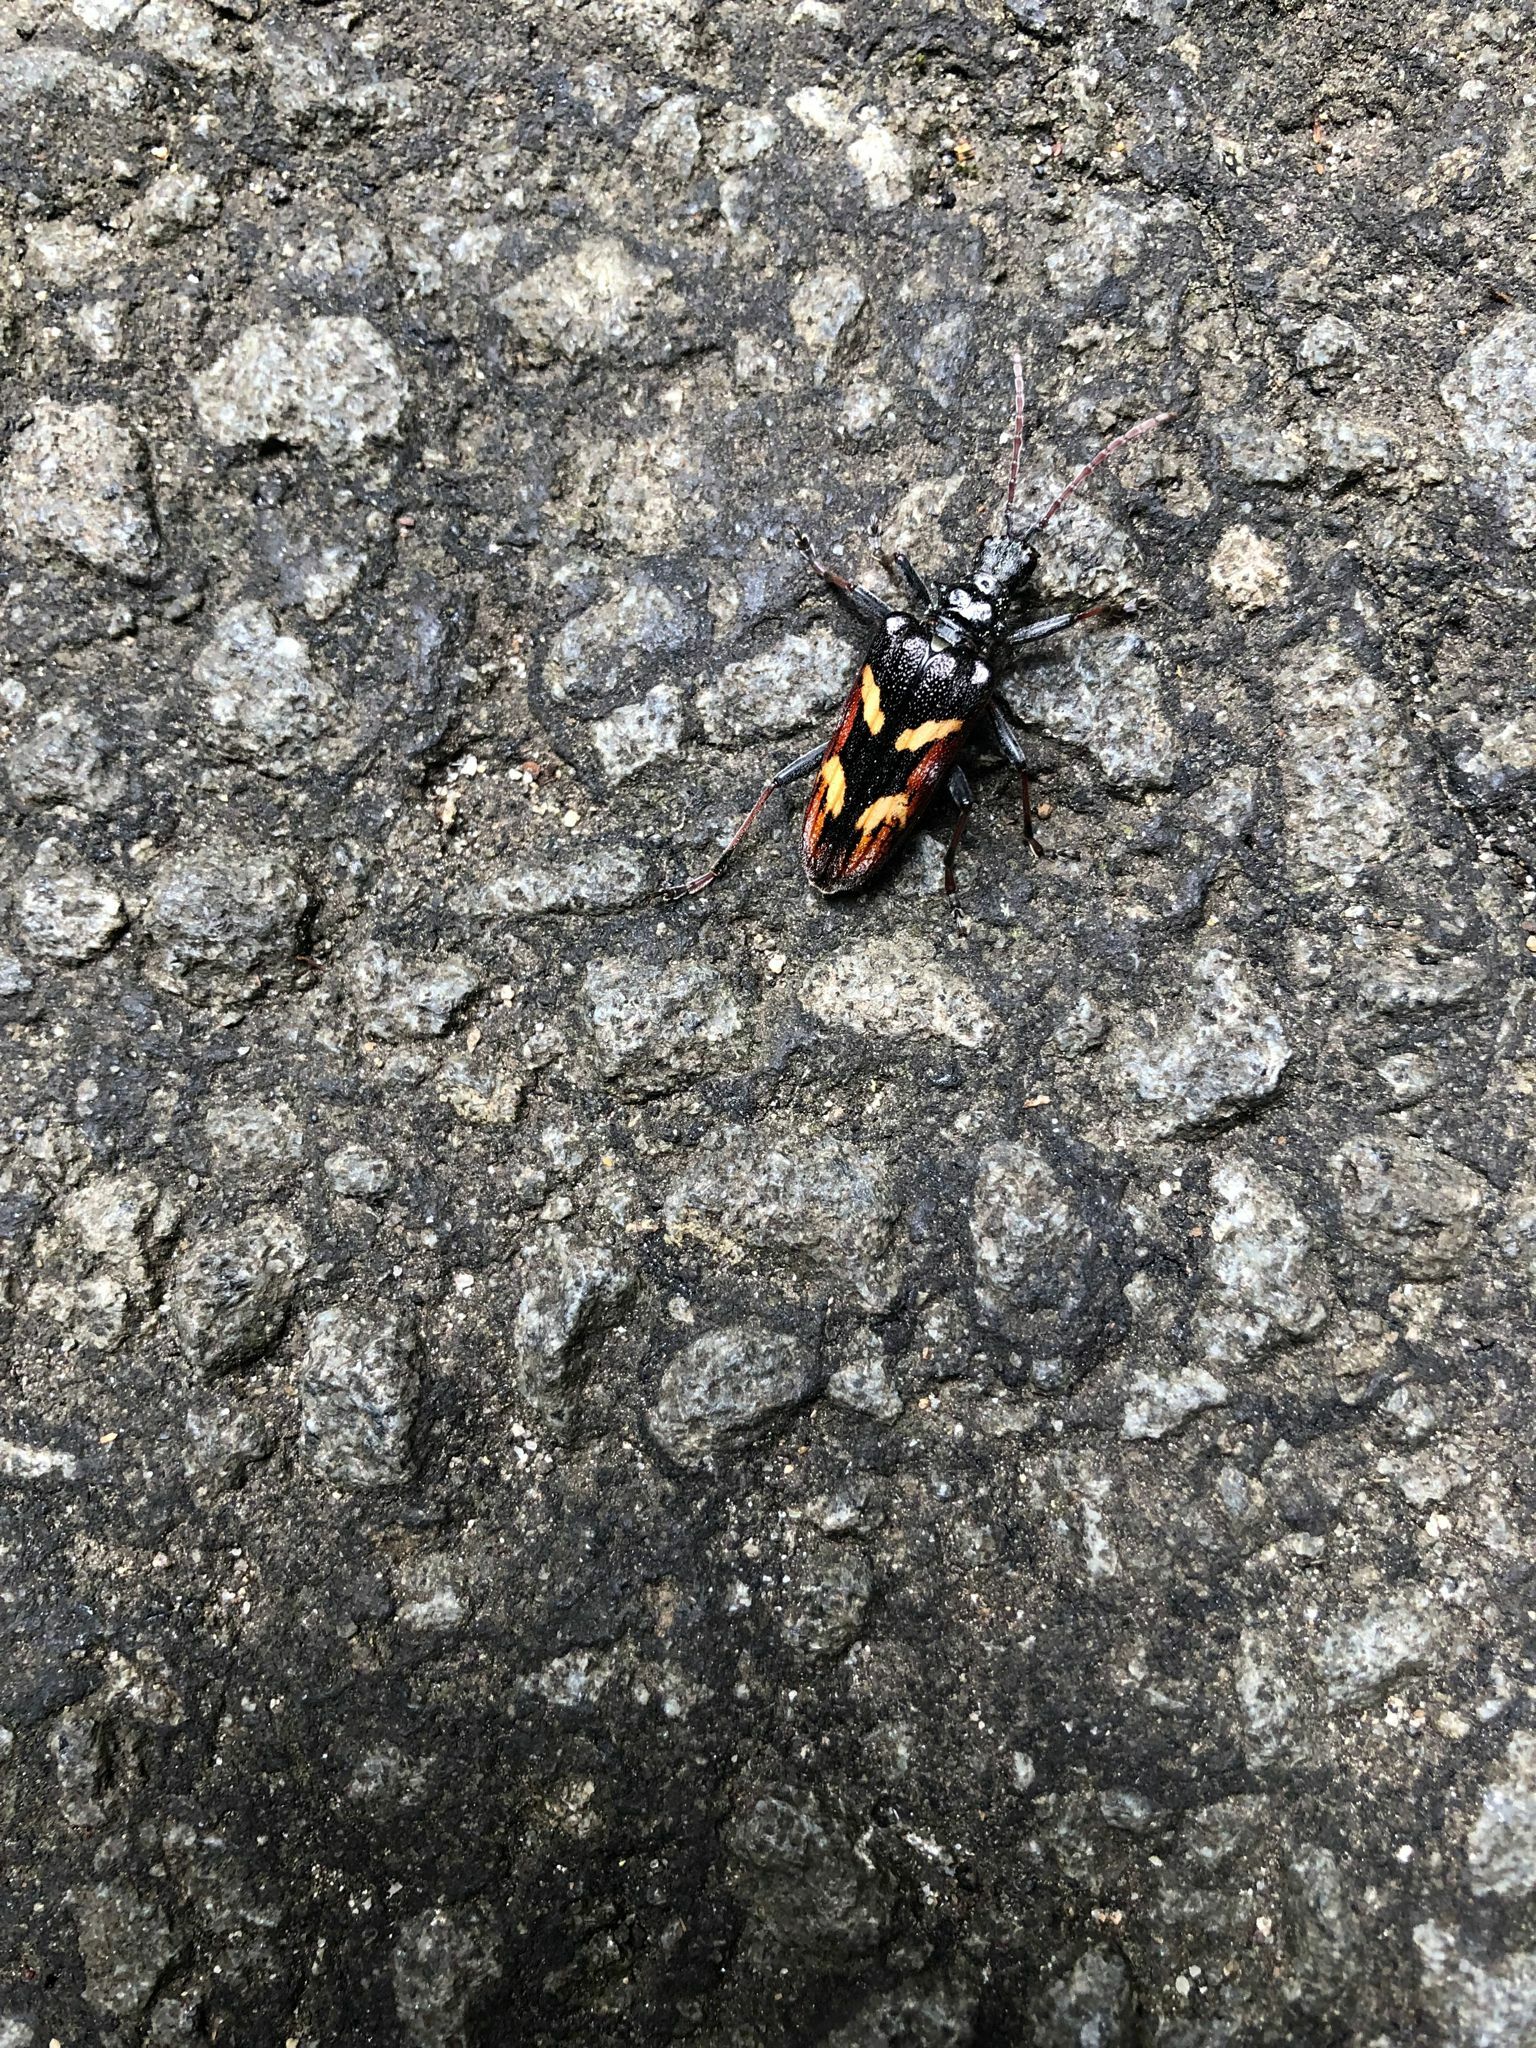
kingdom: Animalia
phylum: Arthropoda
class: Insecta
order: Coleoptera
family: Cerambycidae
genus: Rhagium
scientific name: Rhagium bifasciatum
